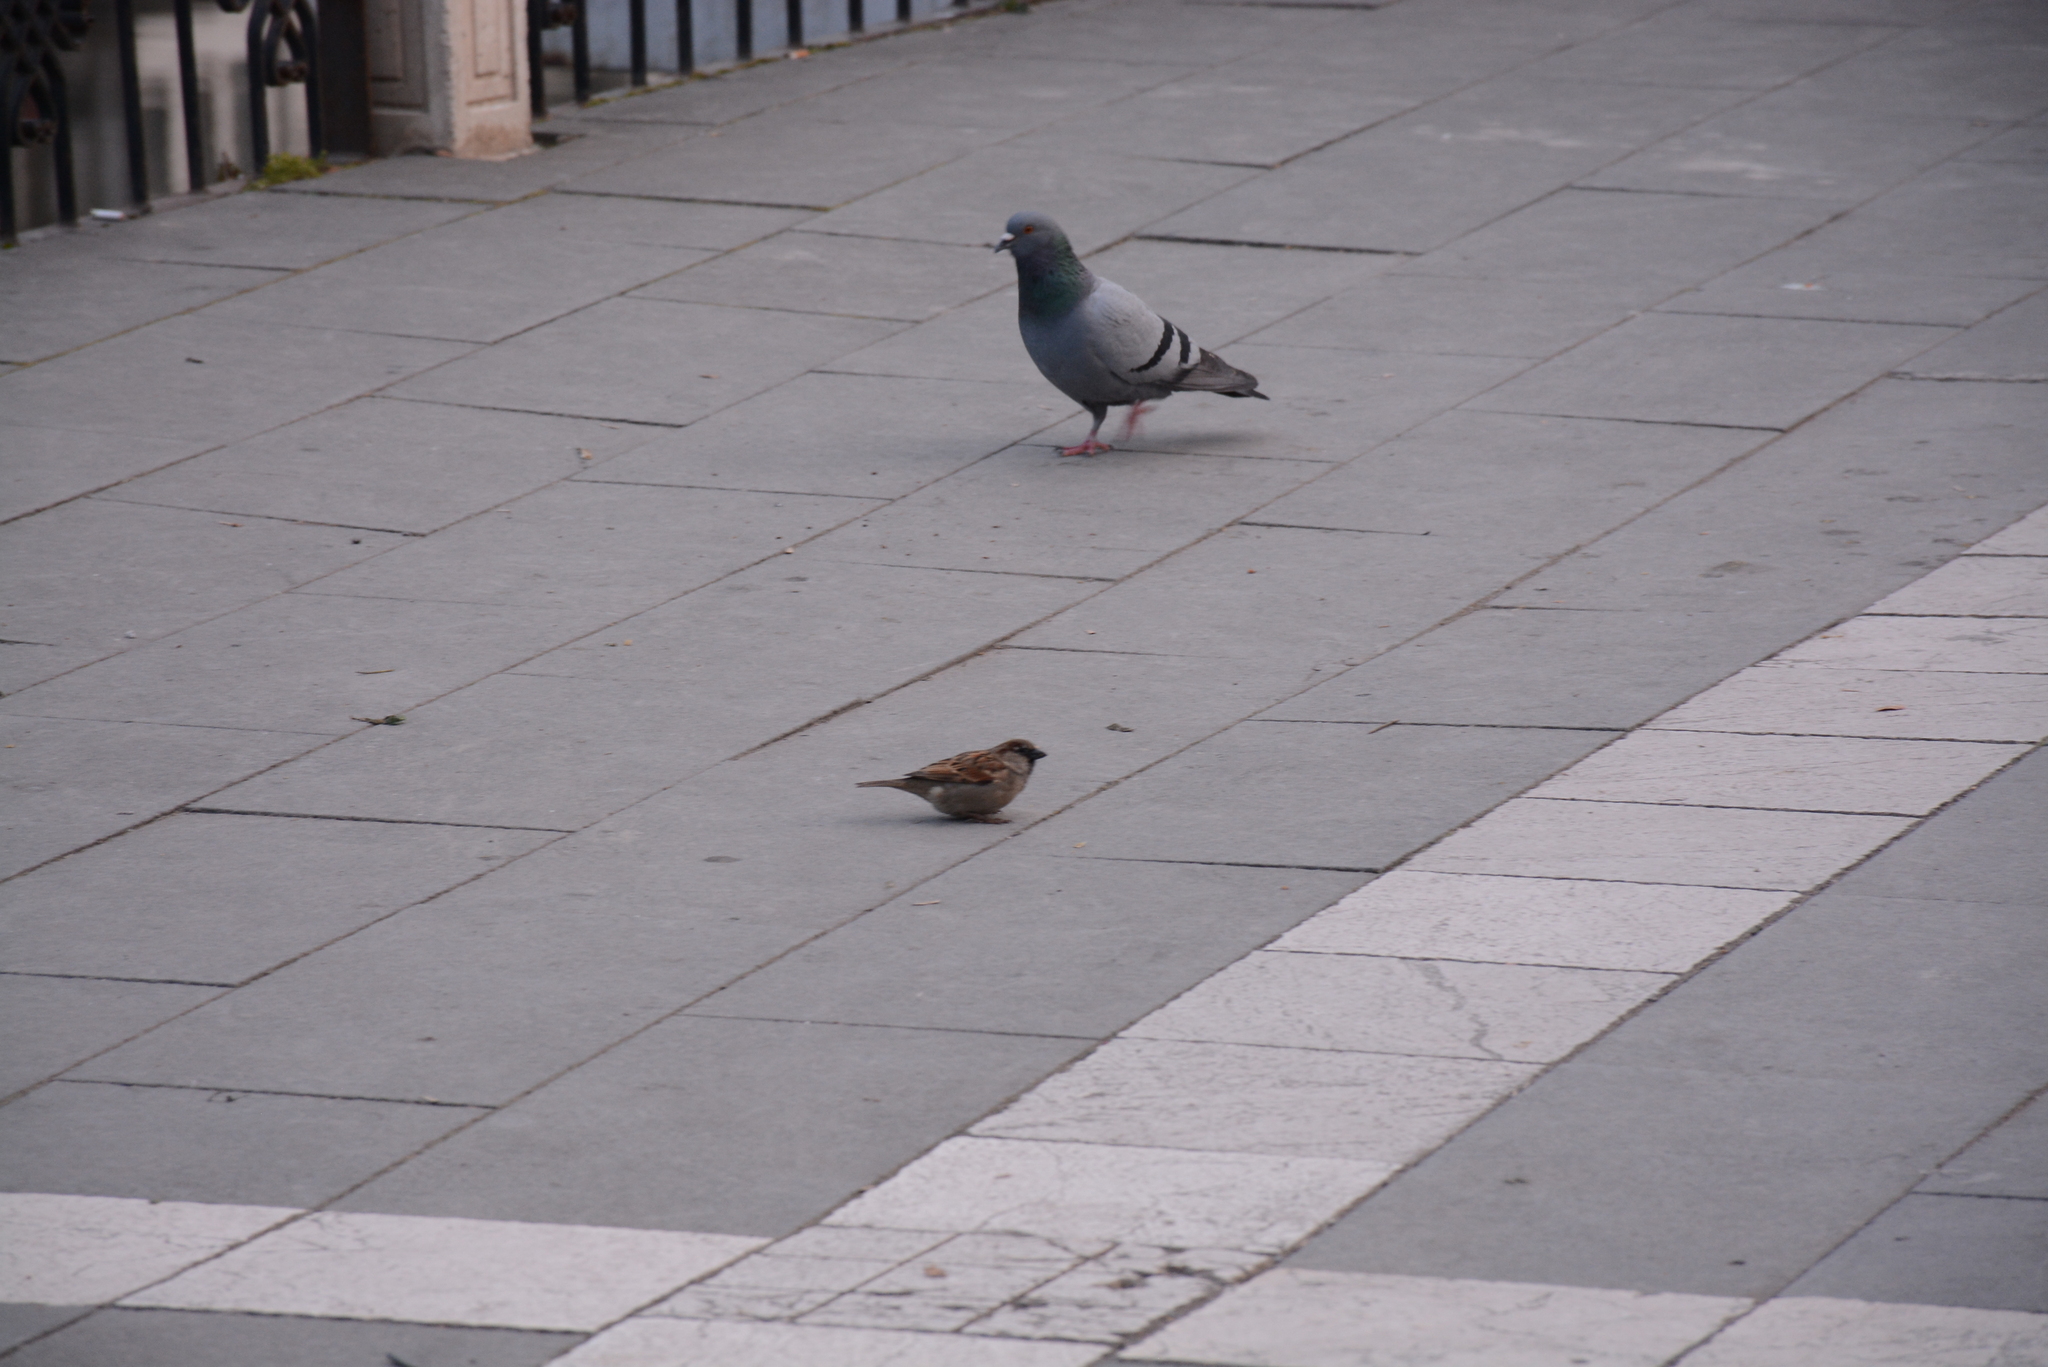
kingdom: Animalia
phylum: Chordata
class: Aves
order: Columbiformes
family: Columbidae
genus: Columba
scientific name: Columba livia
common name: Rock pigeon
